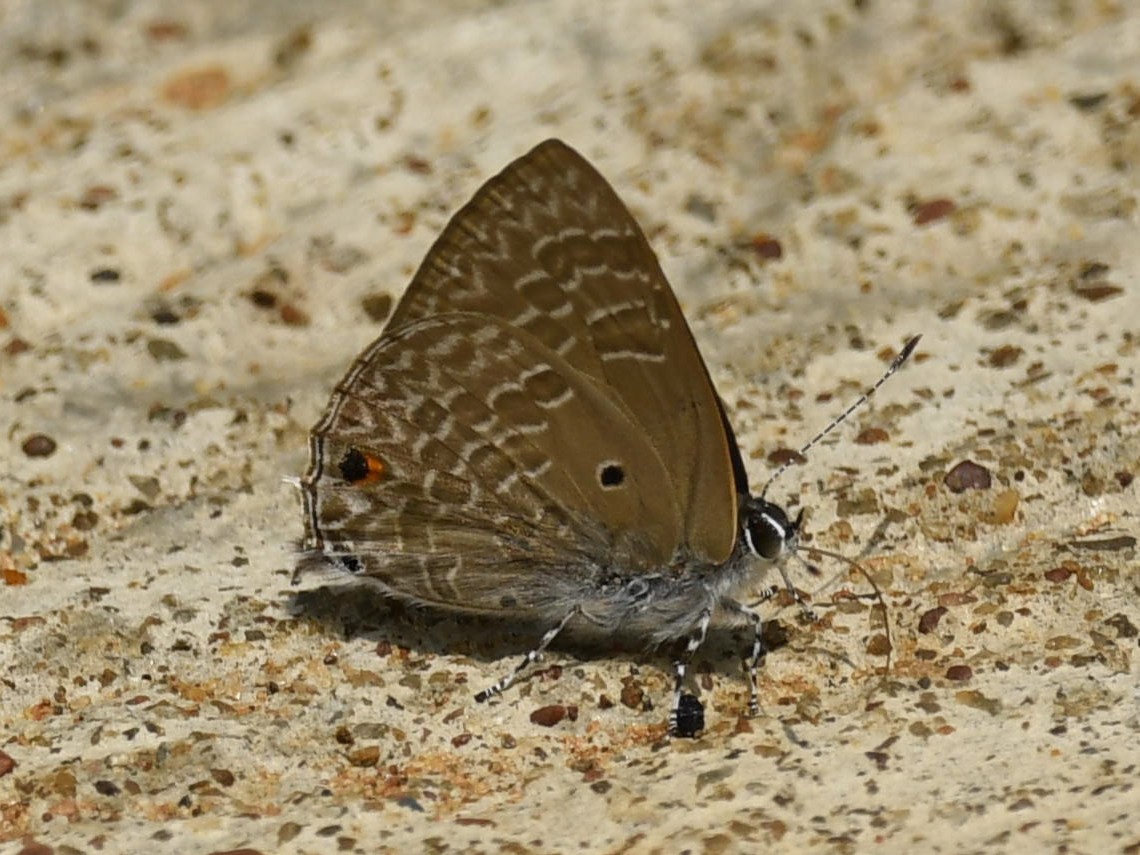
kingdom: Animalia
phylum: Arthropoda
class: Insecta
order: Lepidoptera
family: Lycaenidae
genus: Anthene
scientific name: Anthene lycaenina
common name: Pointed ciliate blue
